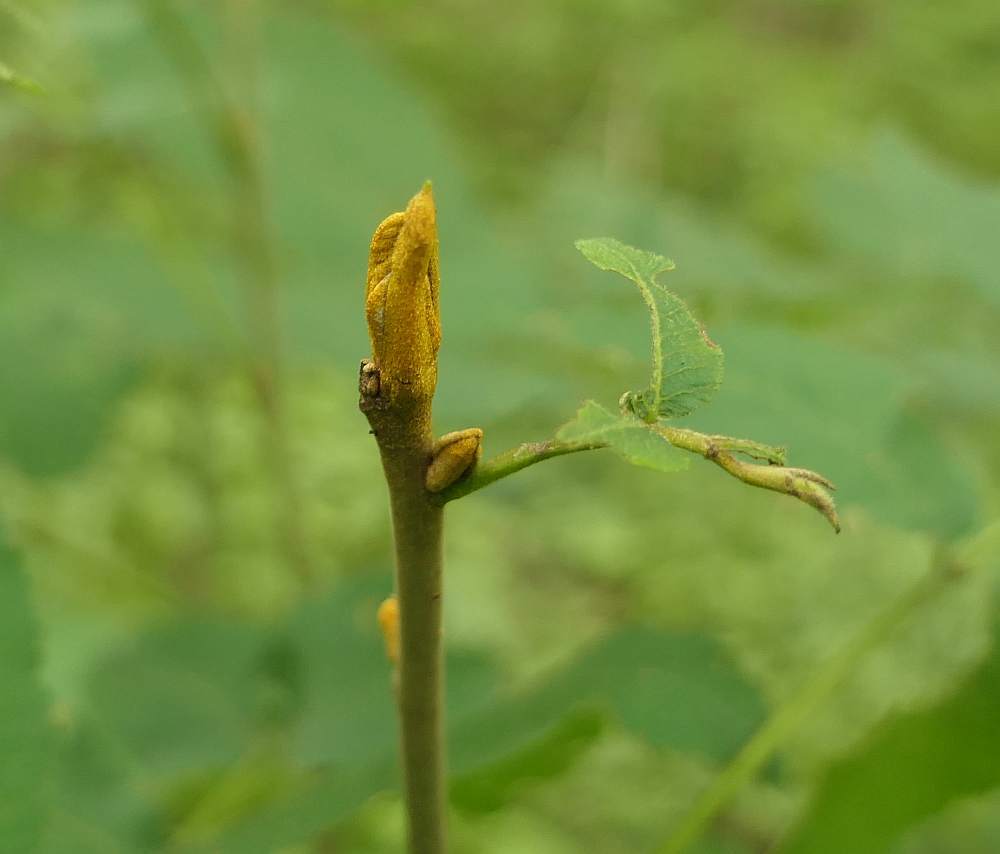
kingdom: Plantae
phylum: Tracheophyta
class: Magnoliopsida
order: Fagales
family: Juglandaceae
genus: Carya
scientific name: Carya cordiformis
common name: Bitternut hickory
